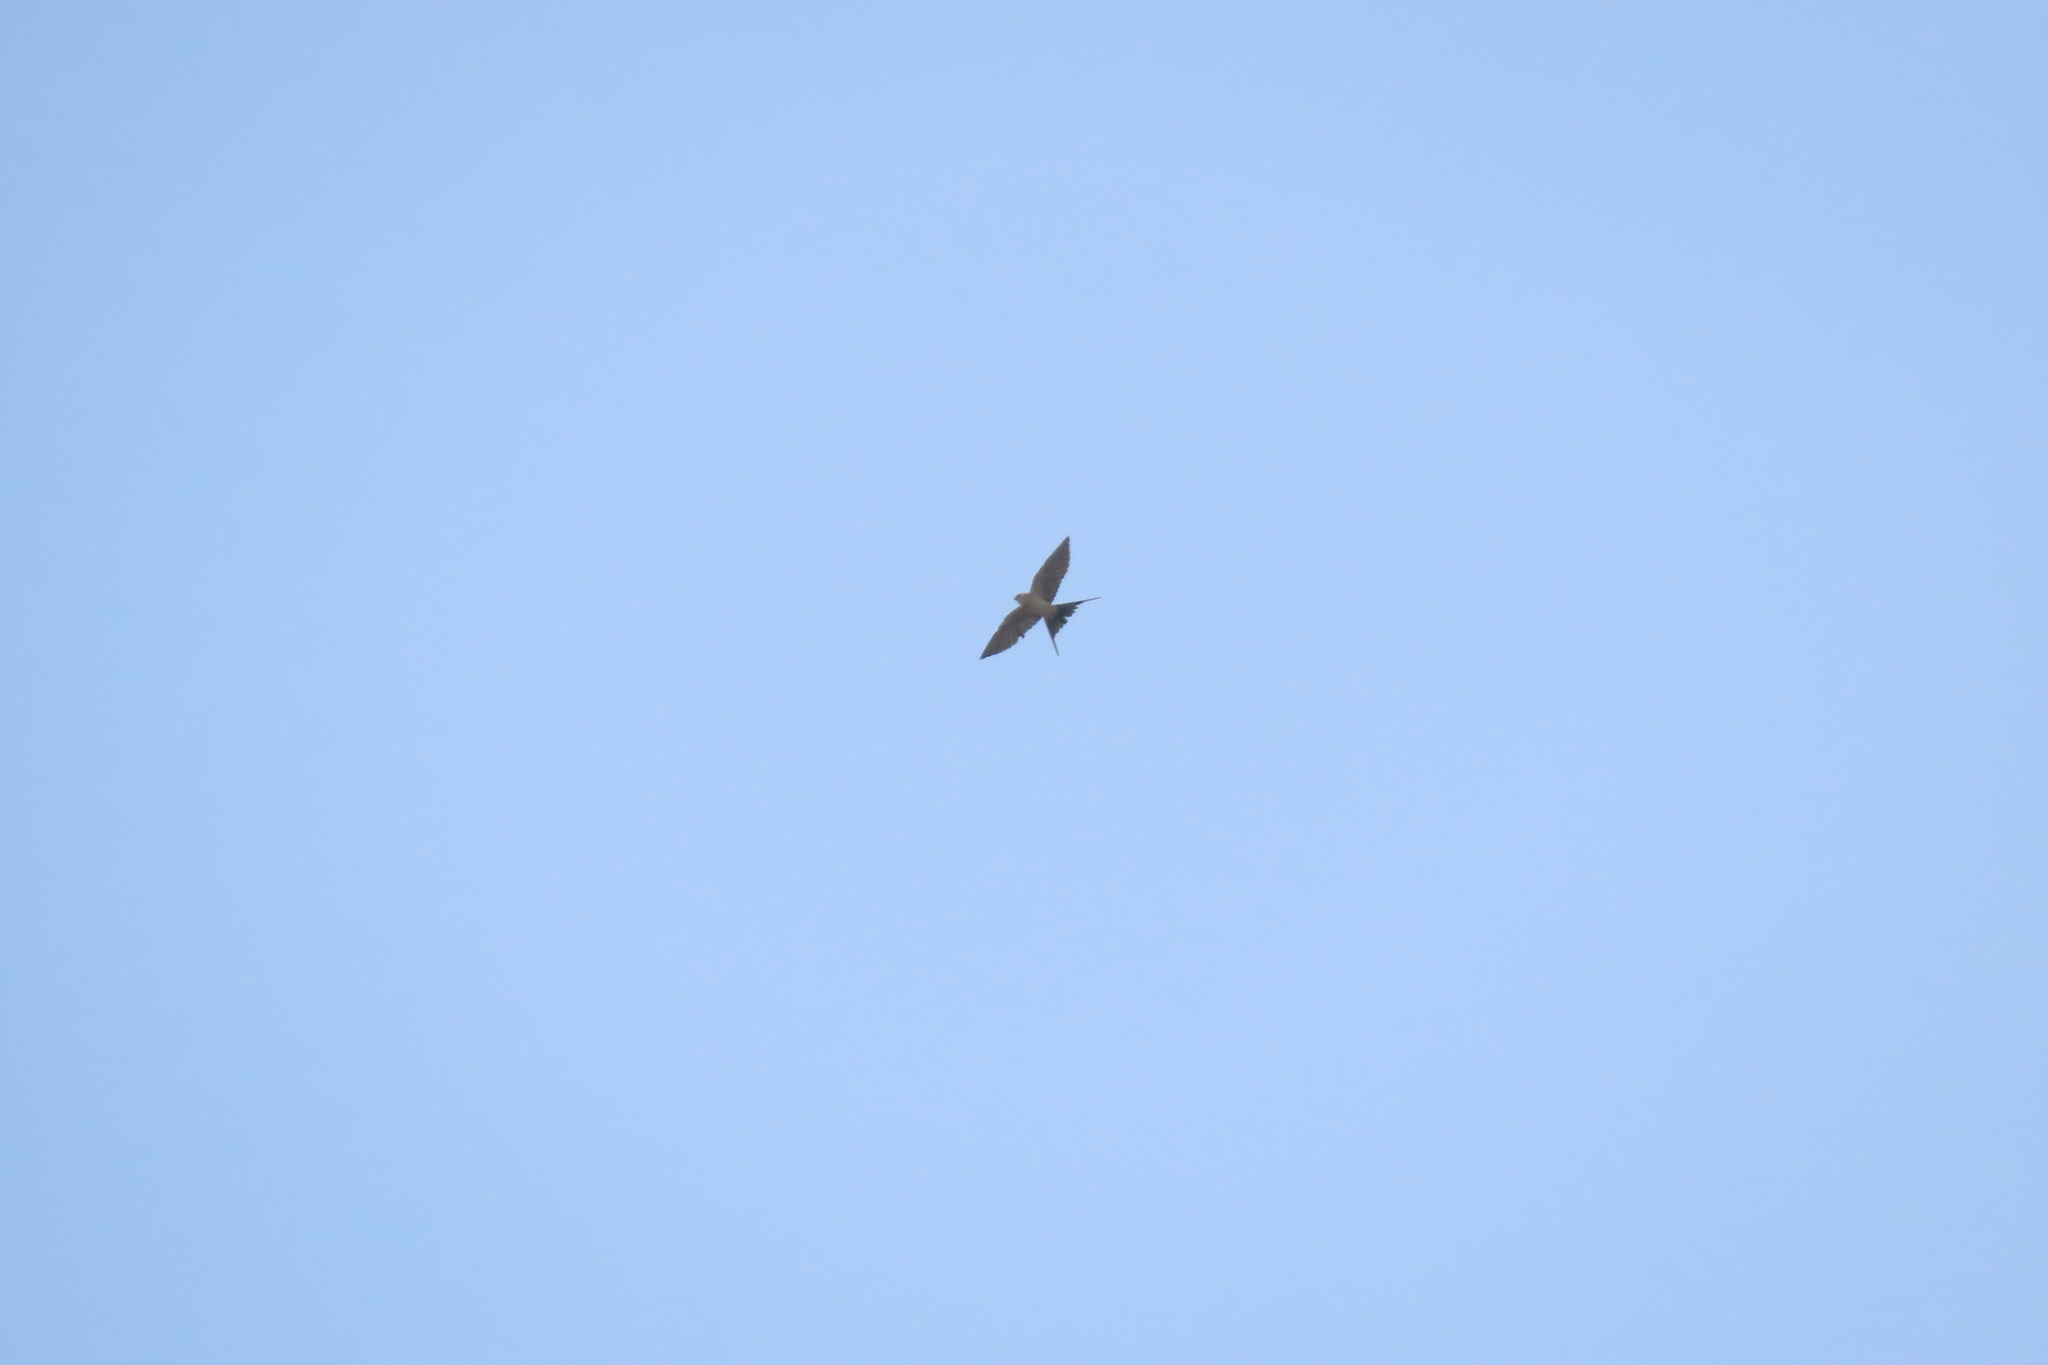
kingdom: Animalia
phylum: Chordata
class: Aves
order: Passeriformes
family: Hirundinidae
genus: Cecropis
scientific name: Cecropis daurica
